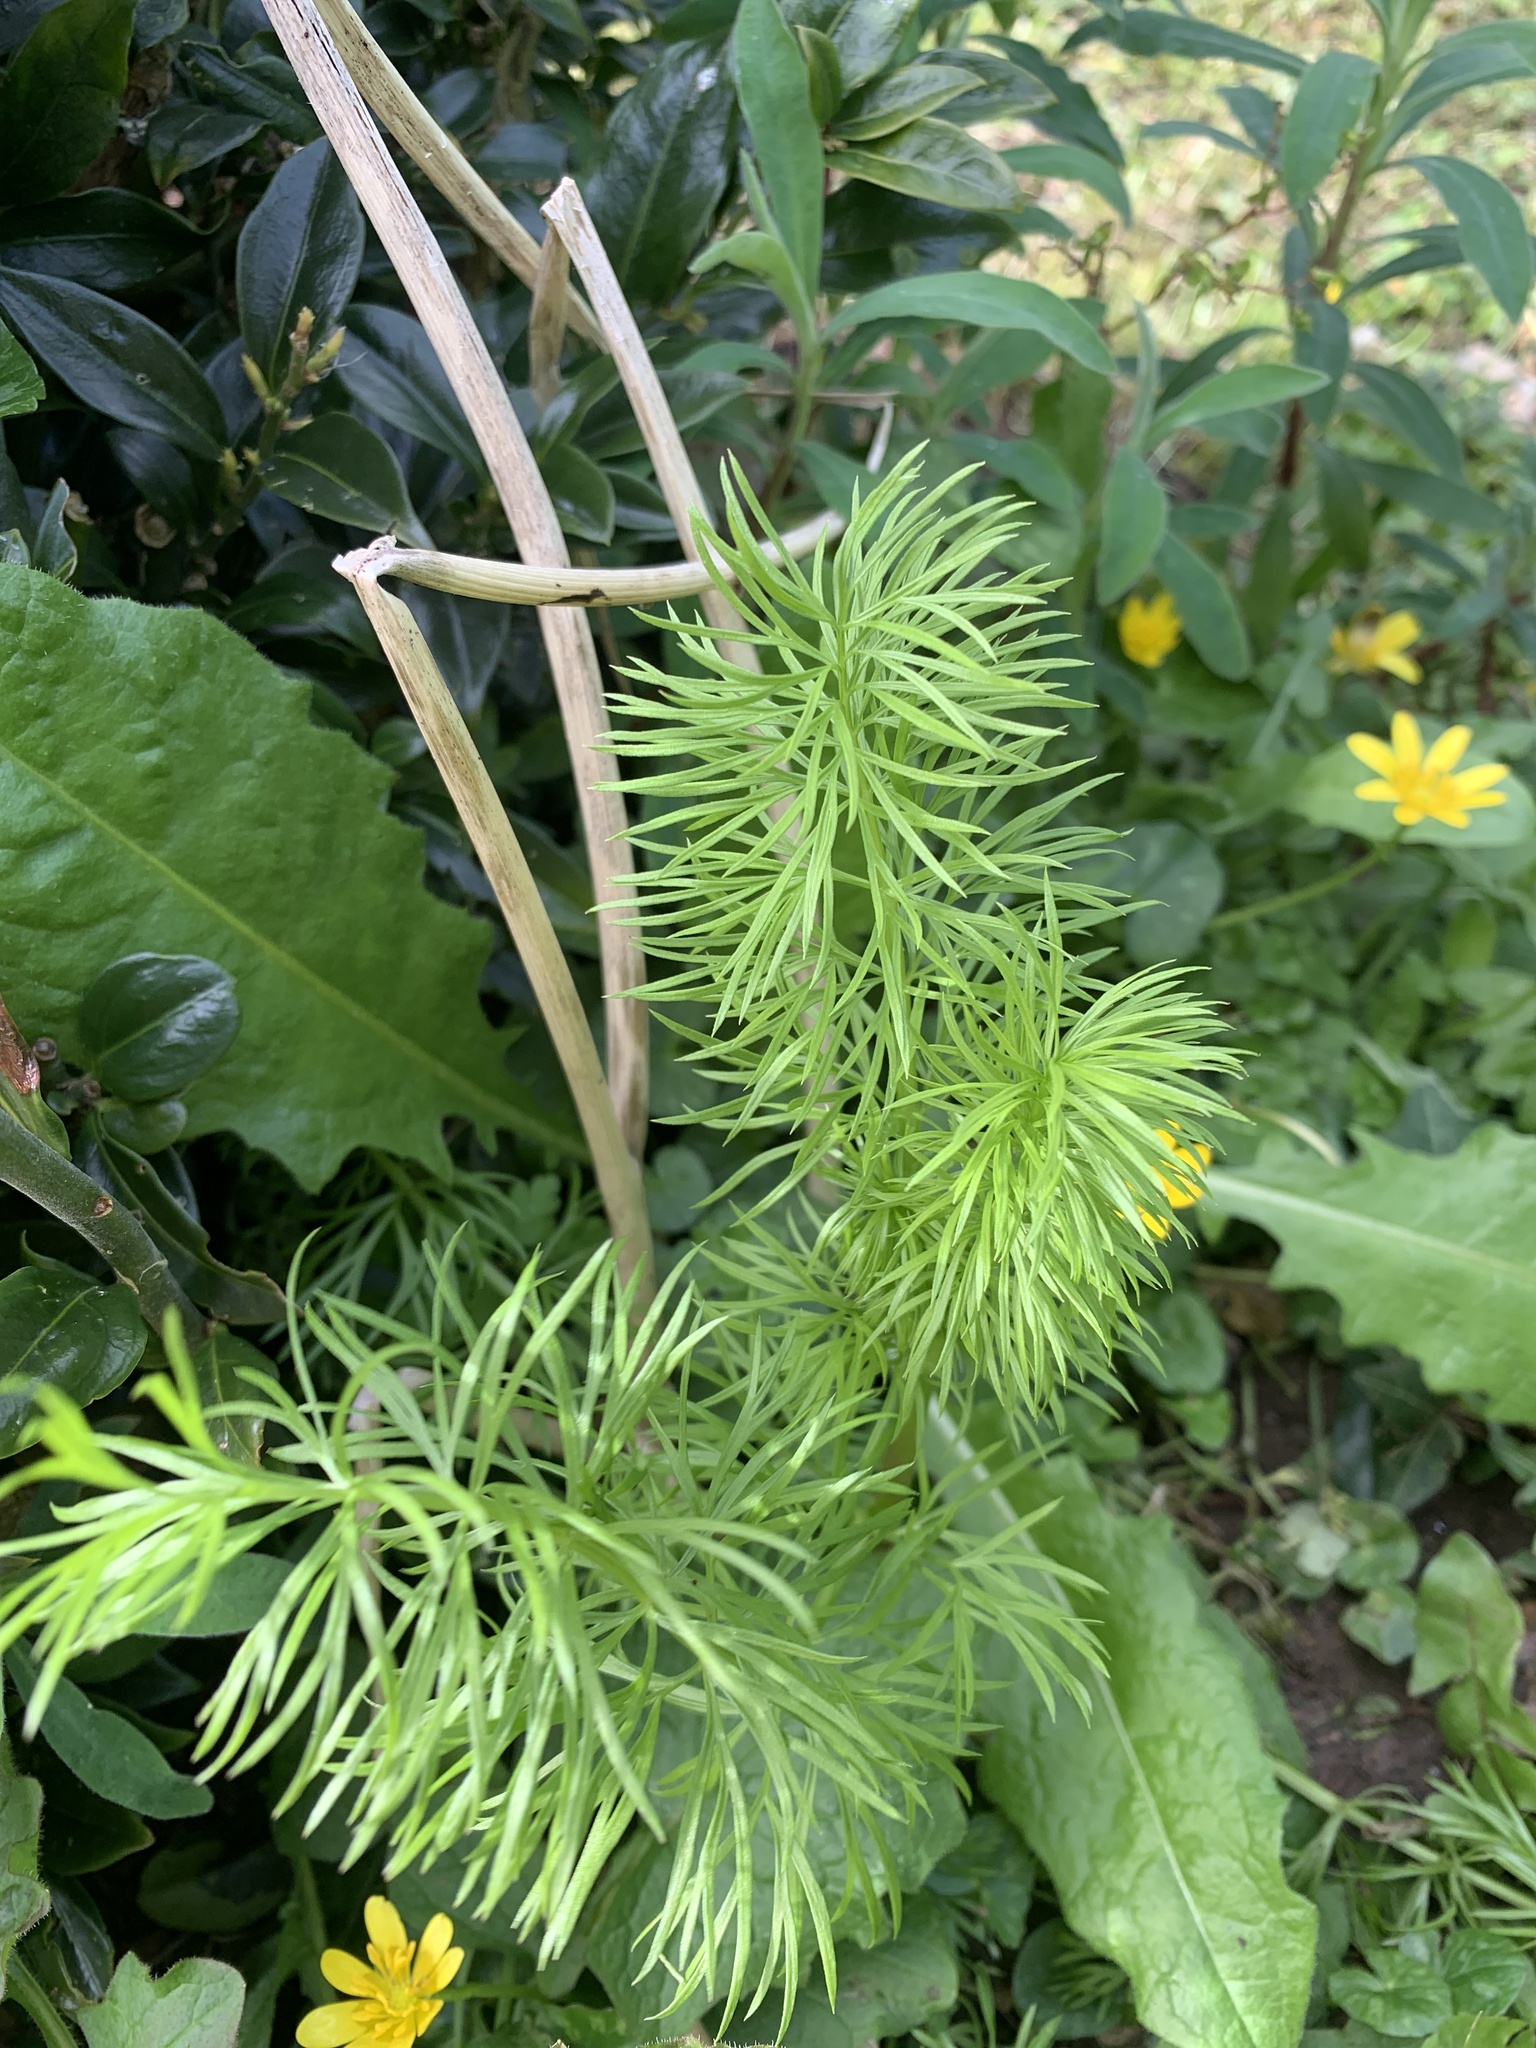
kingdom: Plantae
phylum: Tracheophyta
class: Magnoliopsida
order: Ranunculales
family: Ranunculaceae
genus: Nigella
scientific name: Nigella damascena
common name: Love-in-a-mist
